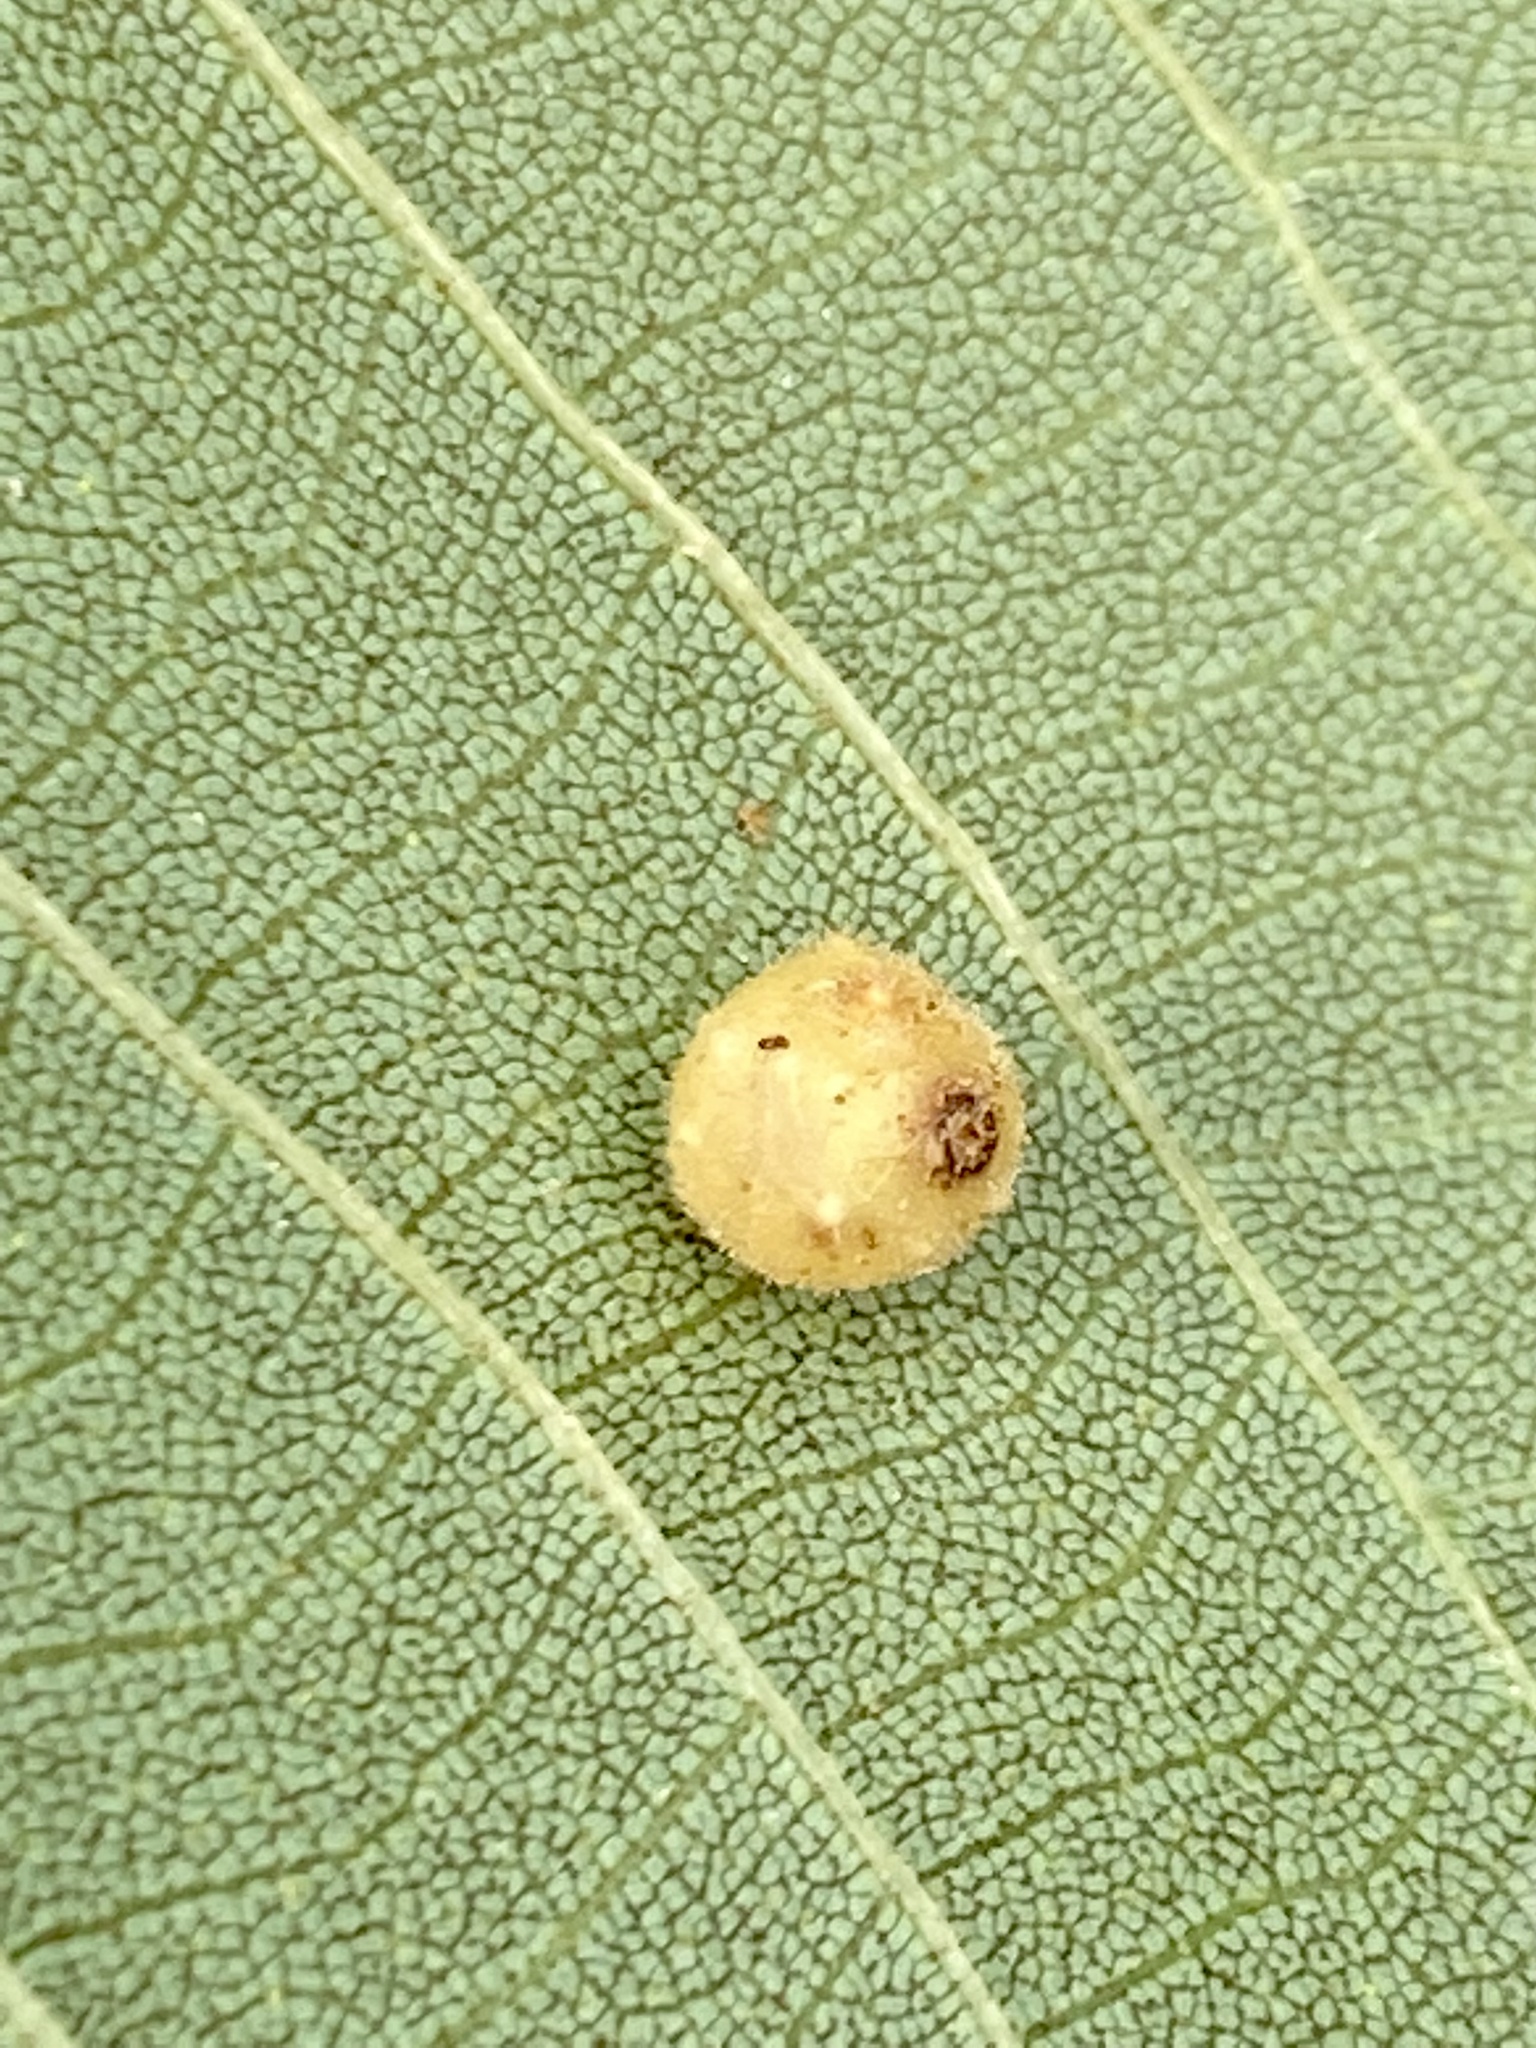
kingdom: Animalia
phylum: Arthropoda
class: Insecta
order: Diptera
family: Cecidomyiidae
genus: Caryomyia
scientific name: Caryomyia tuberidolium
